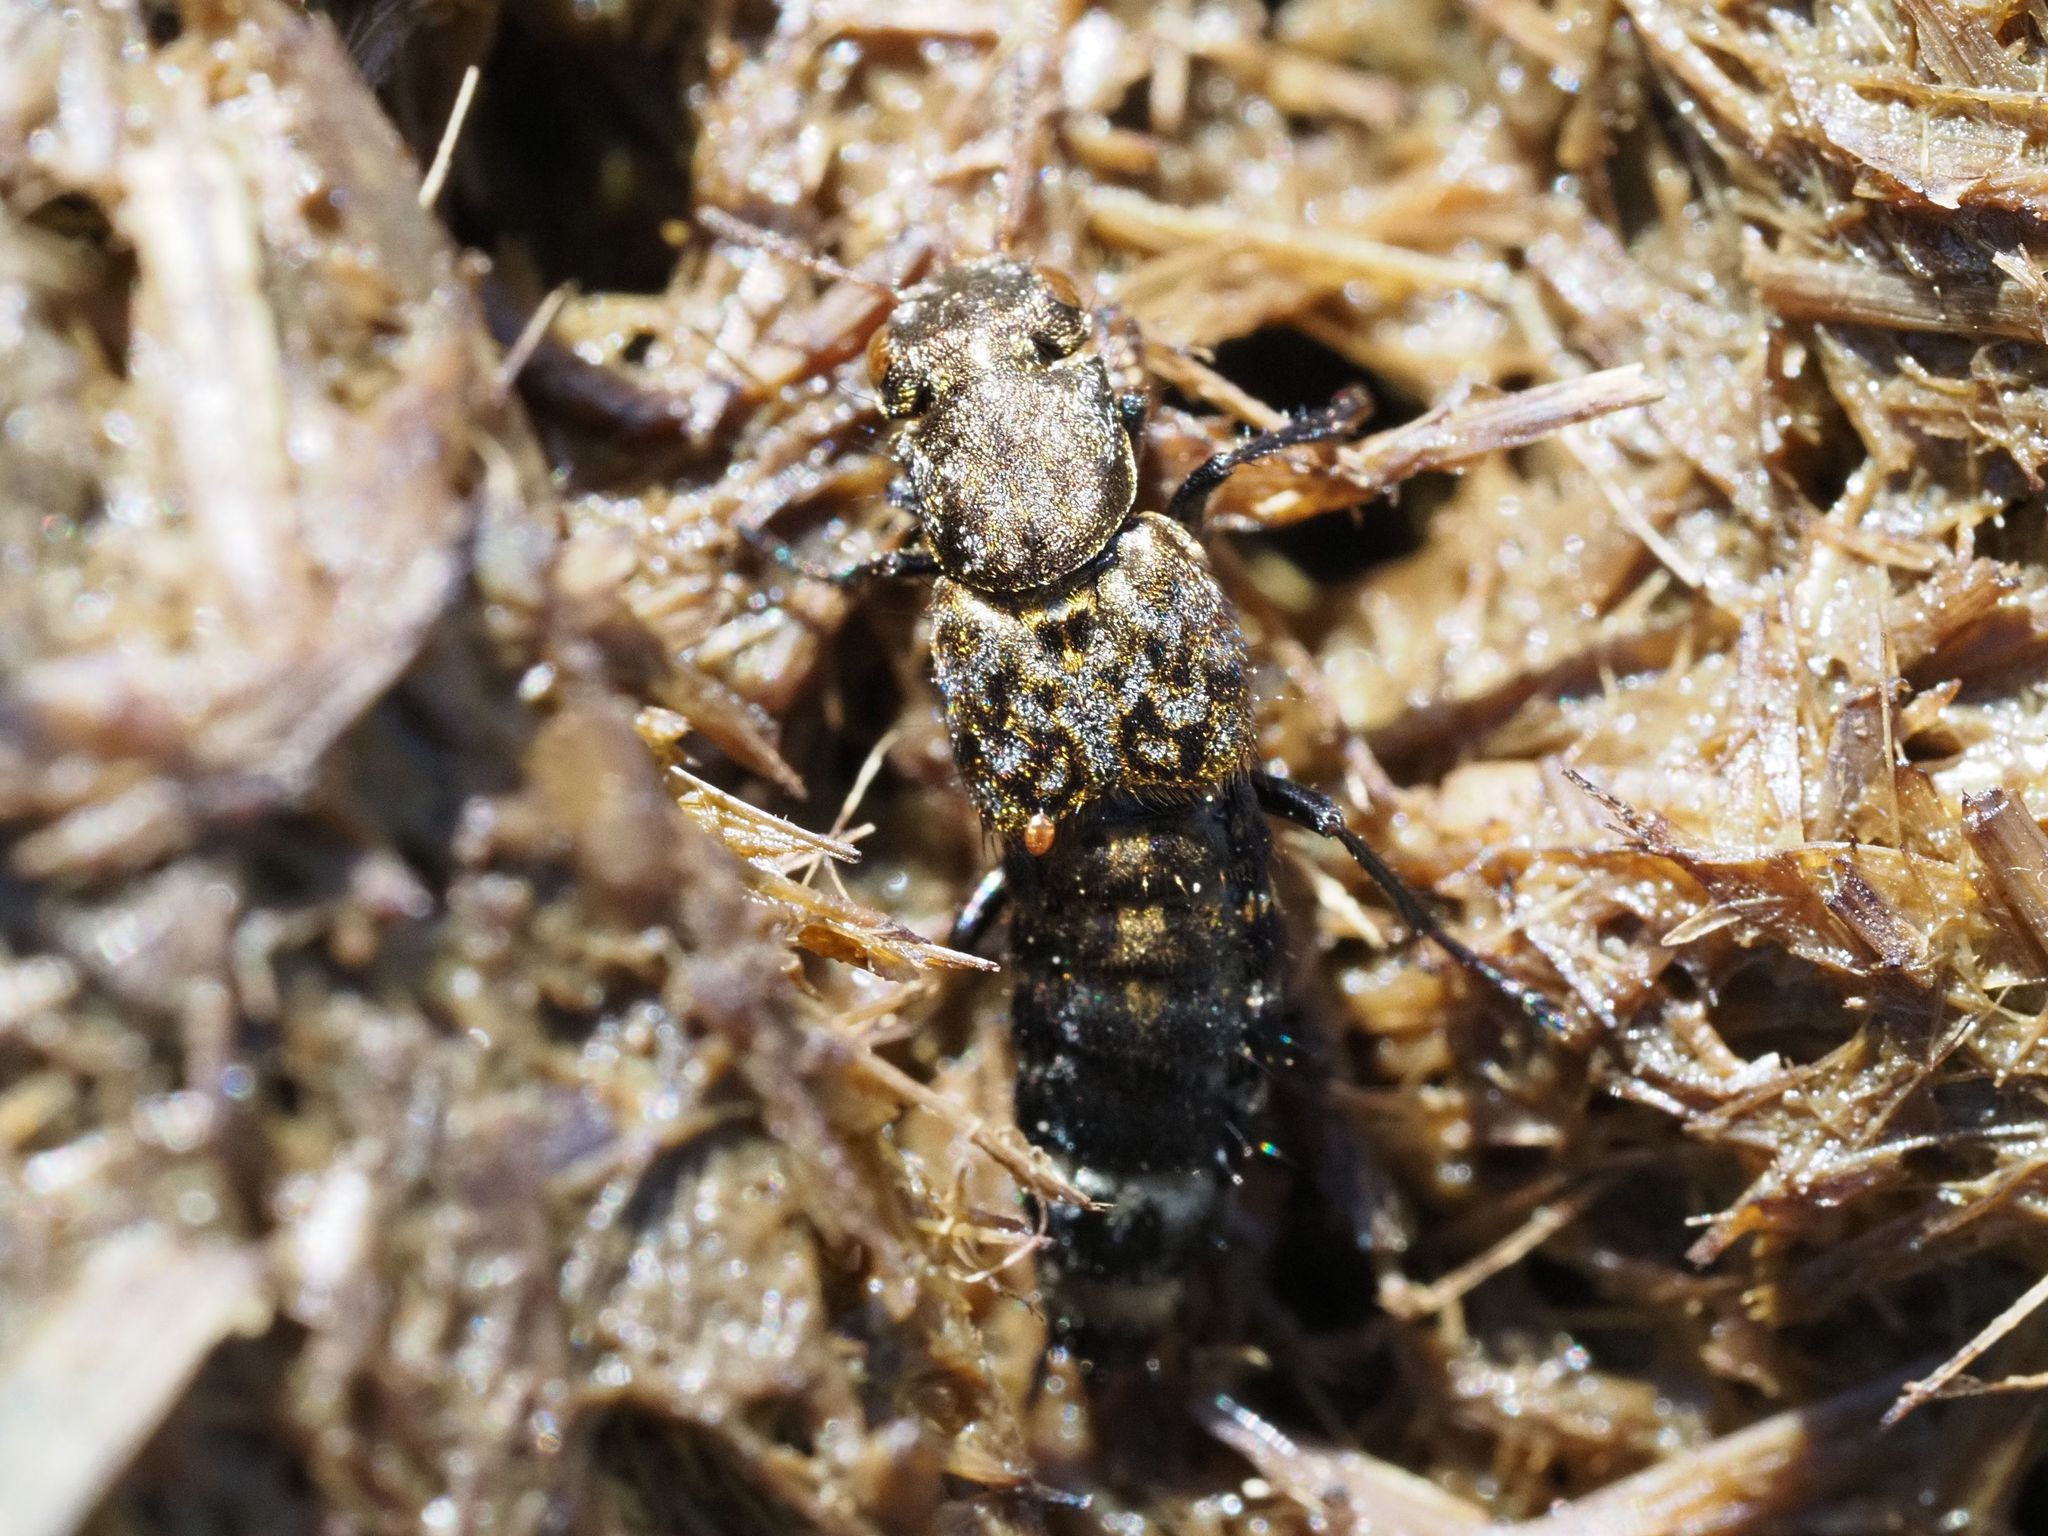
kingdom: Animalia
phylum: Arthropoda
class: Insecta
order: Coleoptera
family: Staphylinidae
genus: Ontholestes
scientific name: Ontholestes murinus
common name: Staph beetle
